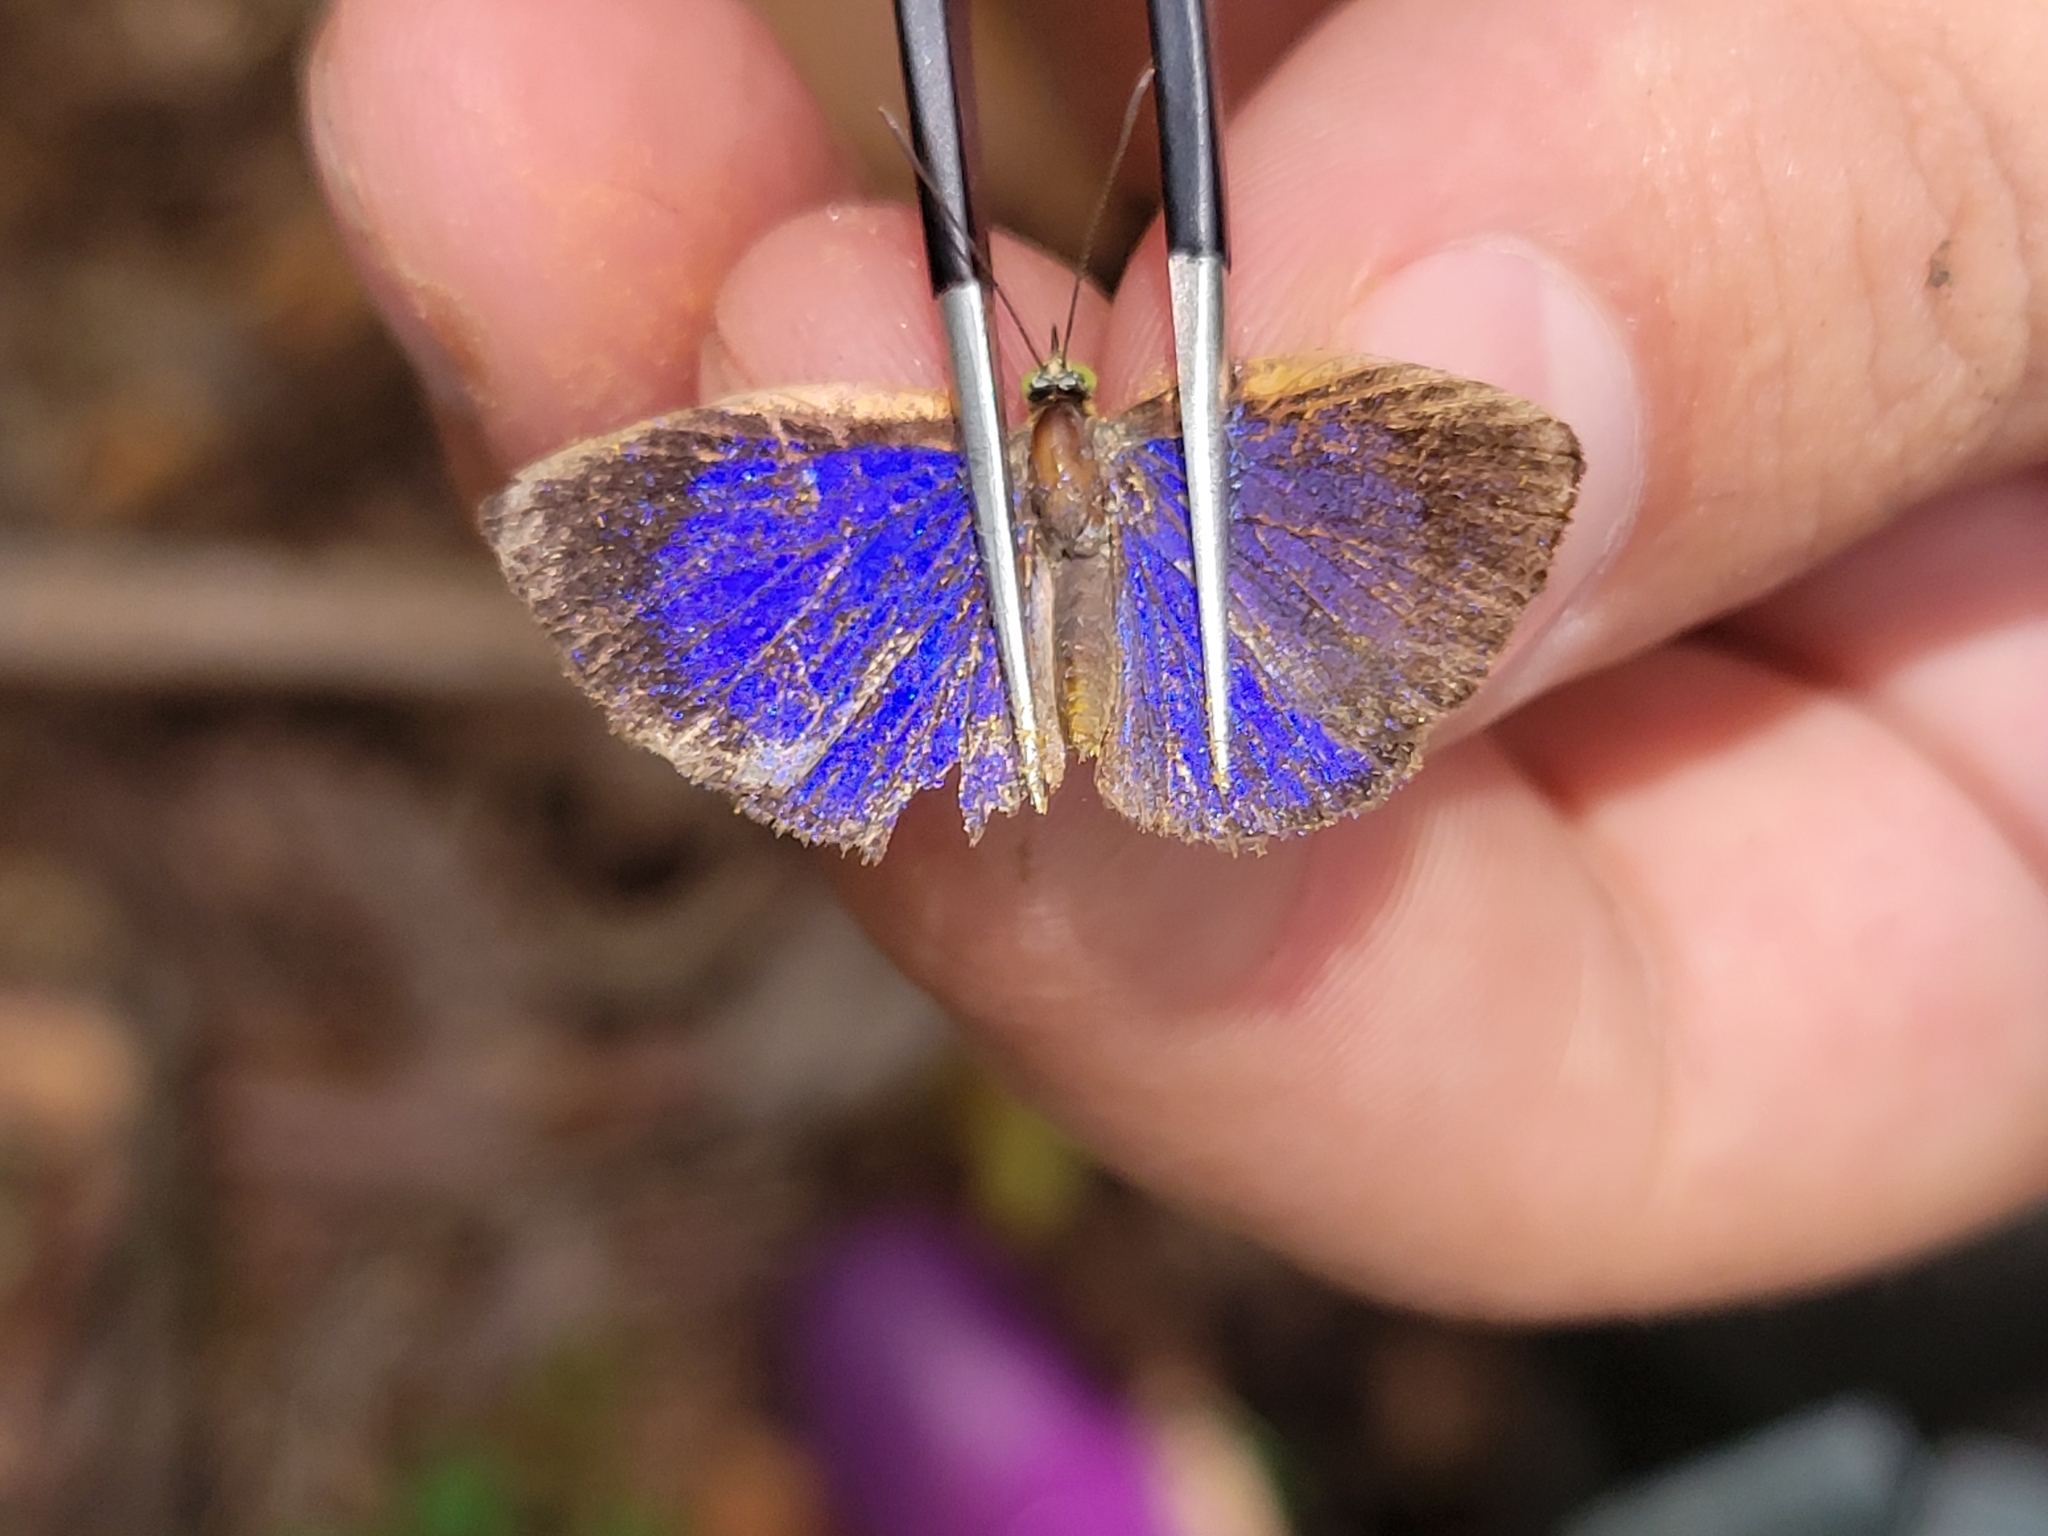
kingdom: Animalia
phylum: Arthropoda
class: Insecta
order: Lepidoptera
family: Nymphalidae
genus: Ethope
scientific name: Ethope
